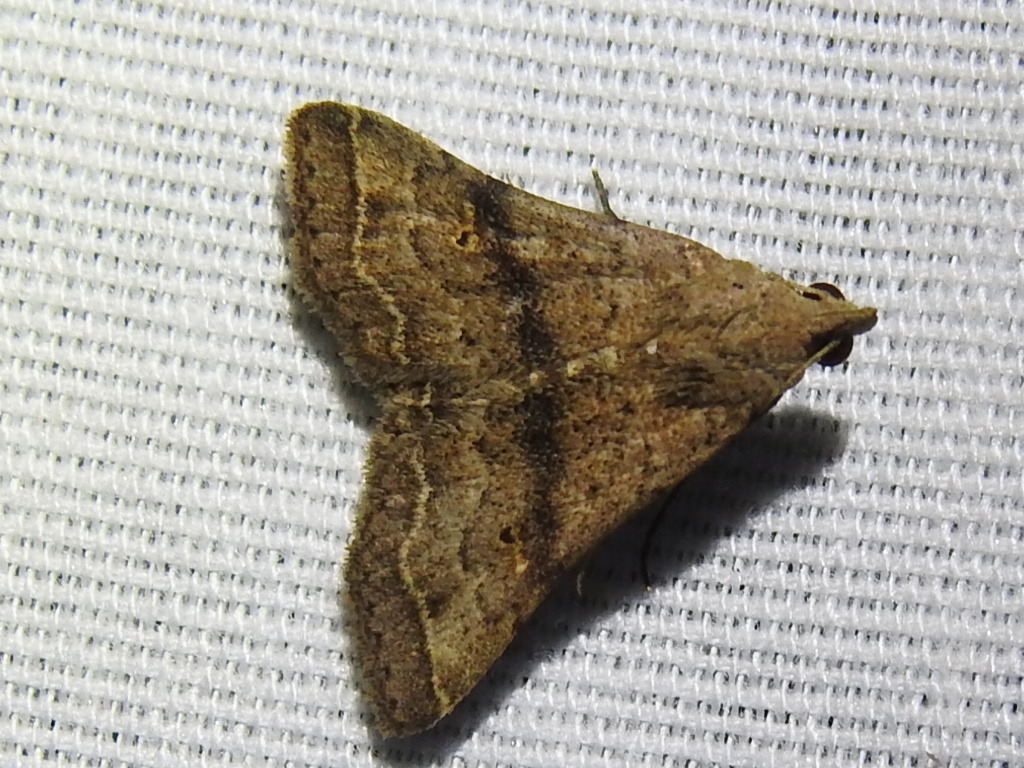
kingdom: Animalia
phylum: Arthropoda
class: Insecta
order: Lepidoptera
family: Erebidae
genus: Bleptina
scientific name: Bleptina caradrinalis
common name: Bent-winged owlet
